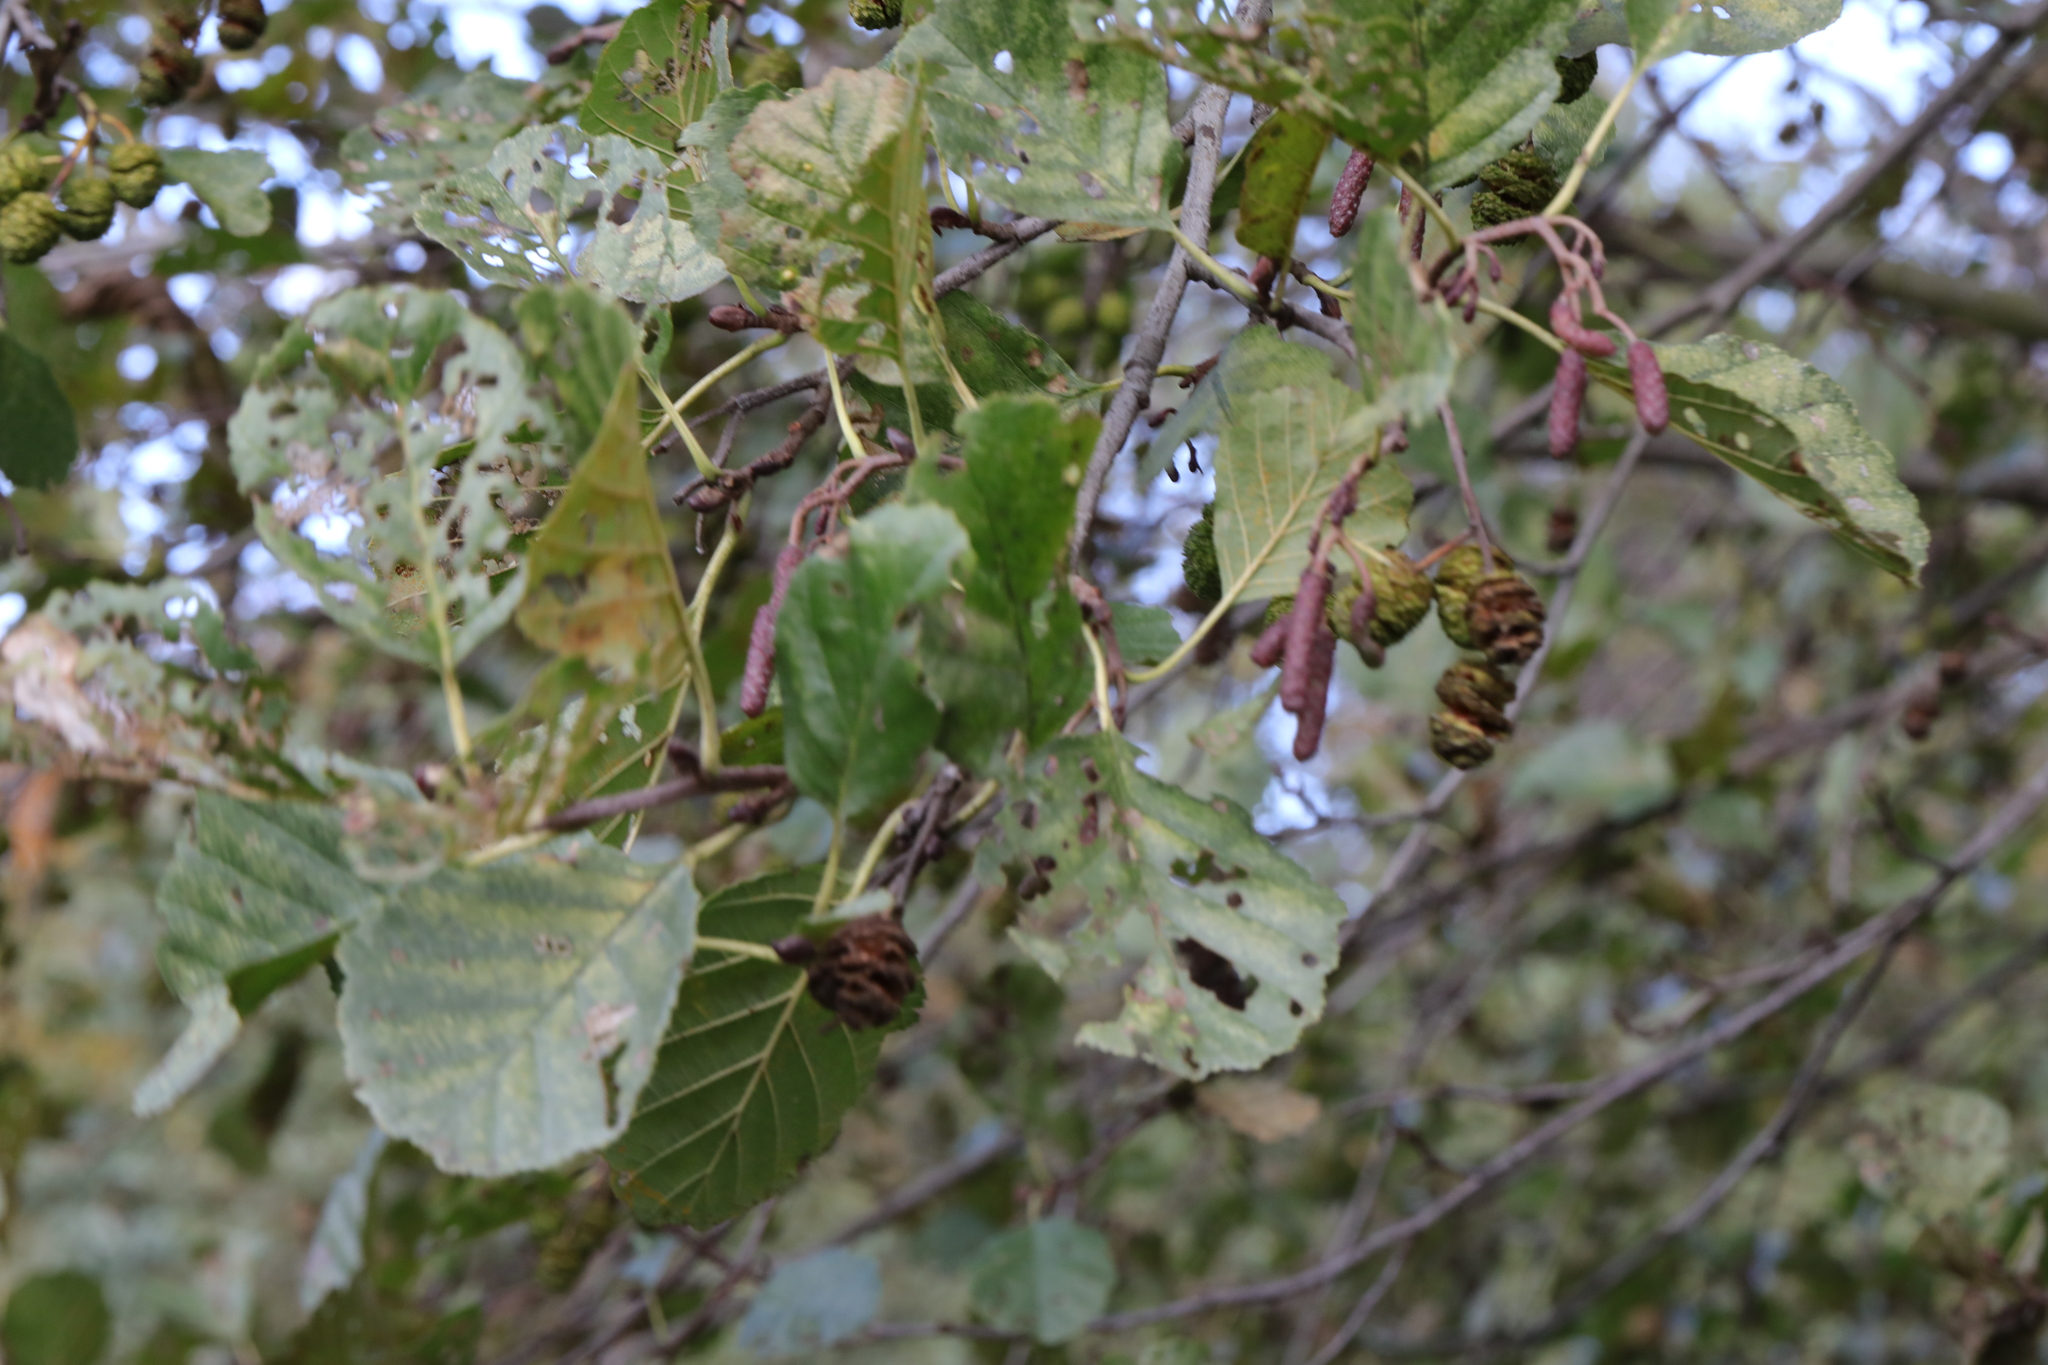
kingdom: Plantae
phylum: Tracheophyta
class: Magnoliopsida
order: Fagales
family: Betulaceae
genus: Alnus
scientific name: Alnus glutinosa
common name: Black alder
